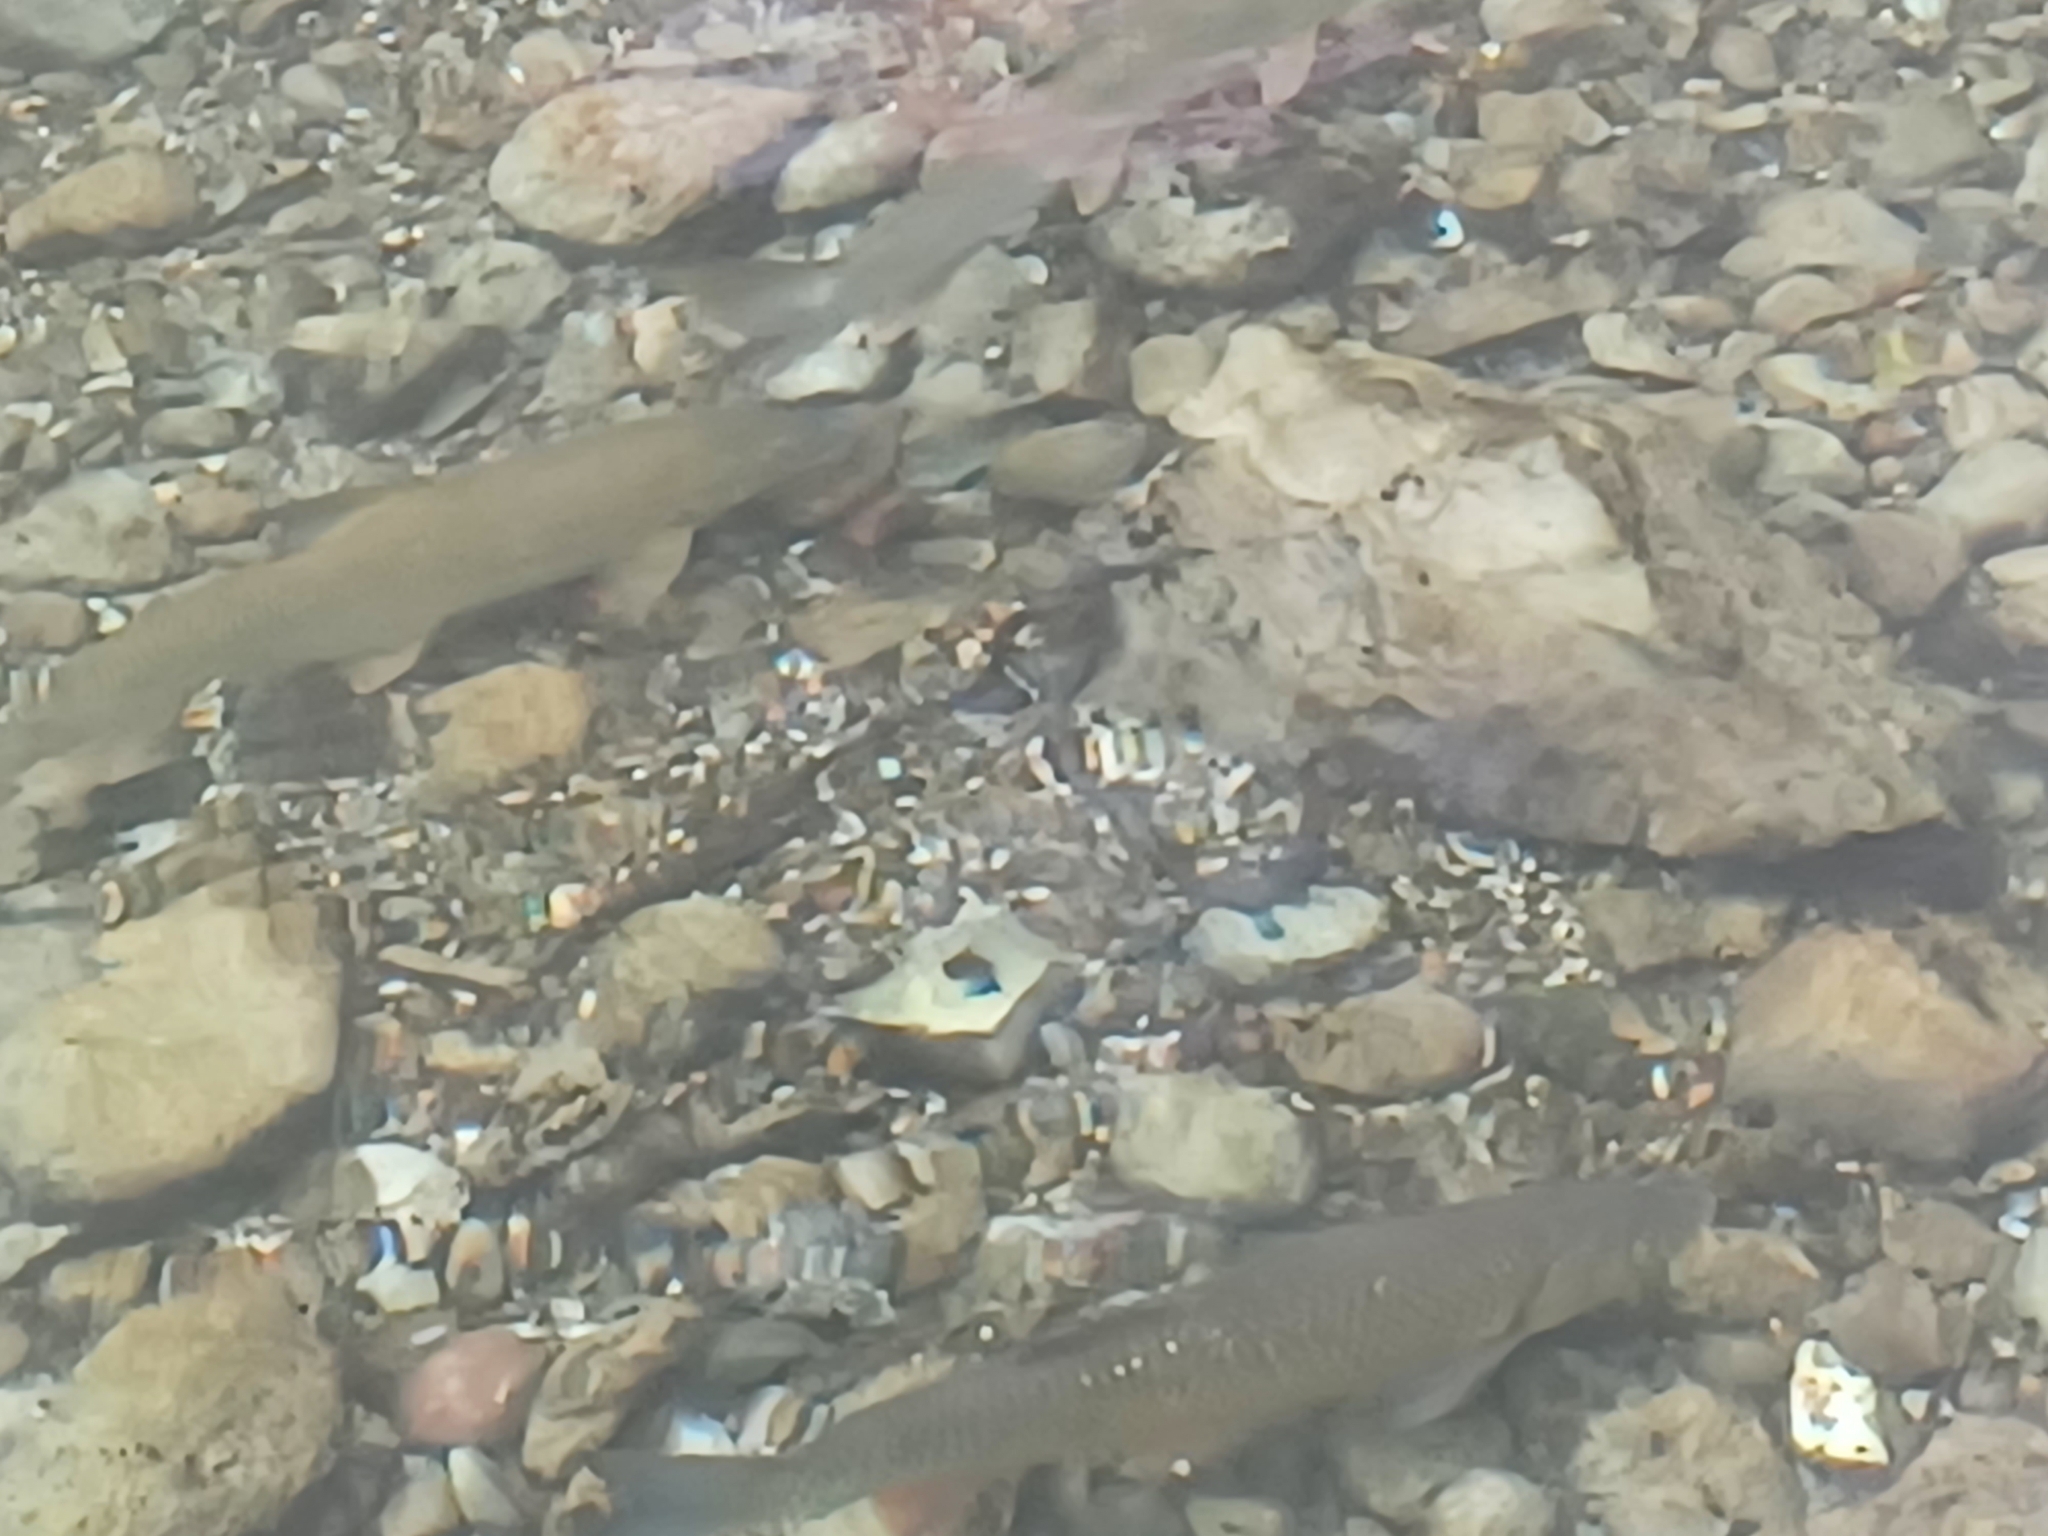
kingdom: Animalia
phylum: Chordata
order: Cypriniformes
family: Cyprinidae
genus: Squalius
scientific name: Squalius cephalus
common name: Chub
